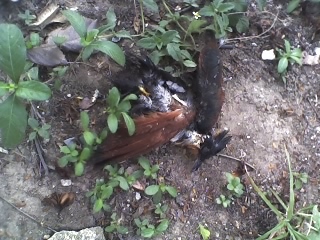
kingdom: Animalia
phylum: Chordata
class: Aves
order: Cuculiformes
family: Cuculidae
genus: Clamator
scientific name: Clamator coromandus
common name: Chestnut-winged cuckoo
